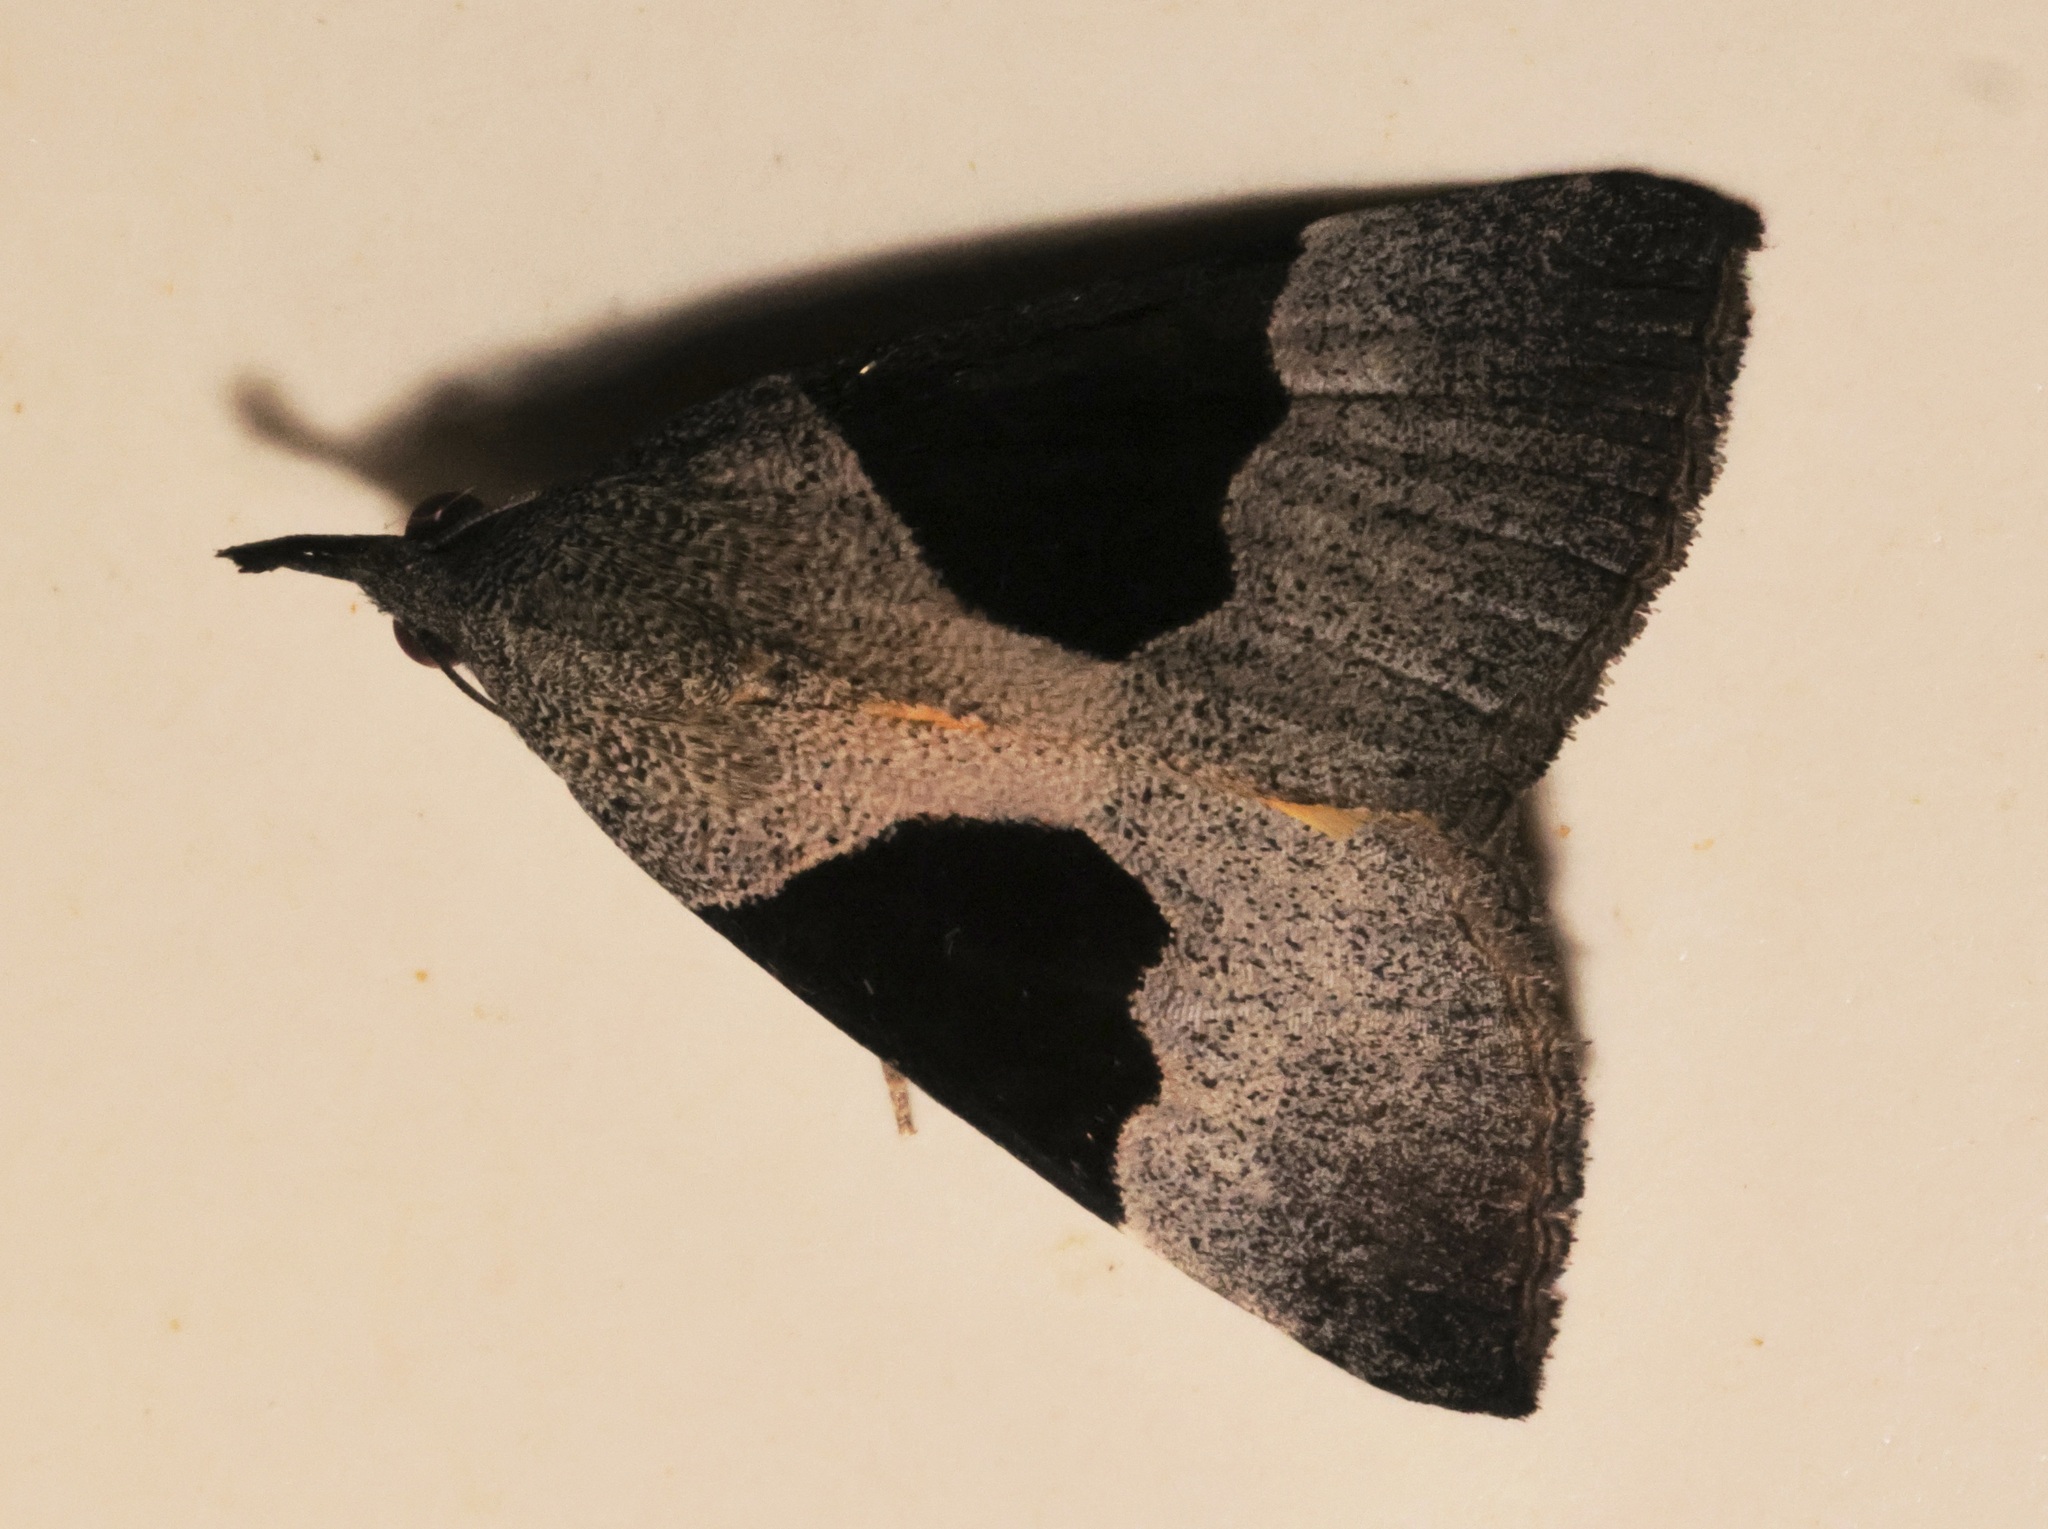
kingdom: Animalia
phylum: Arthropoda
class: Insecta
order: Lepidoptera
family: Erebidae
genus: Hypena
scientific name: Hypena Dichromia sagitta
